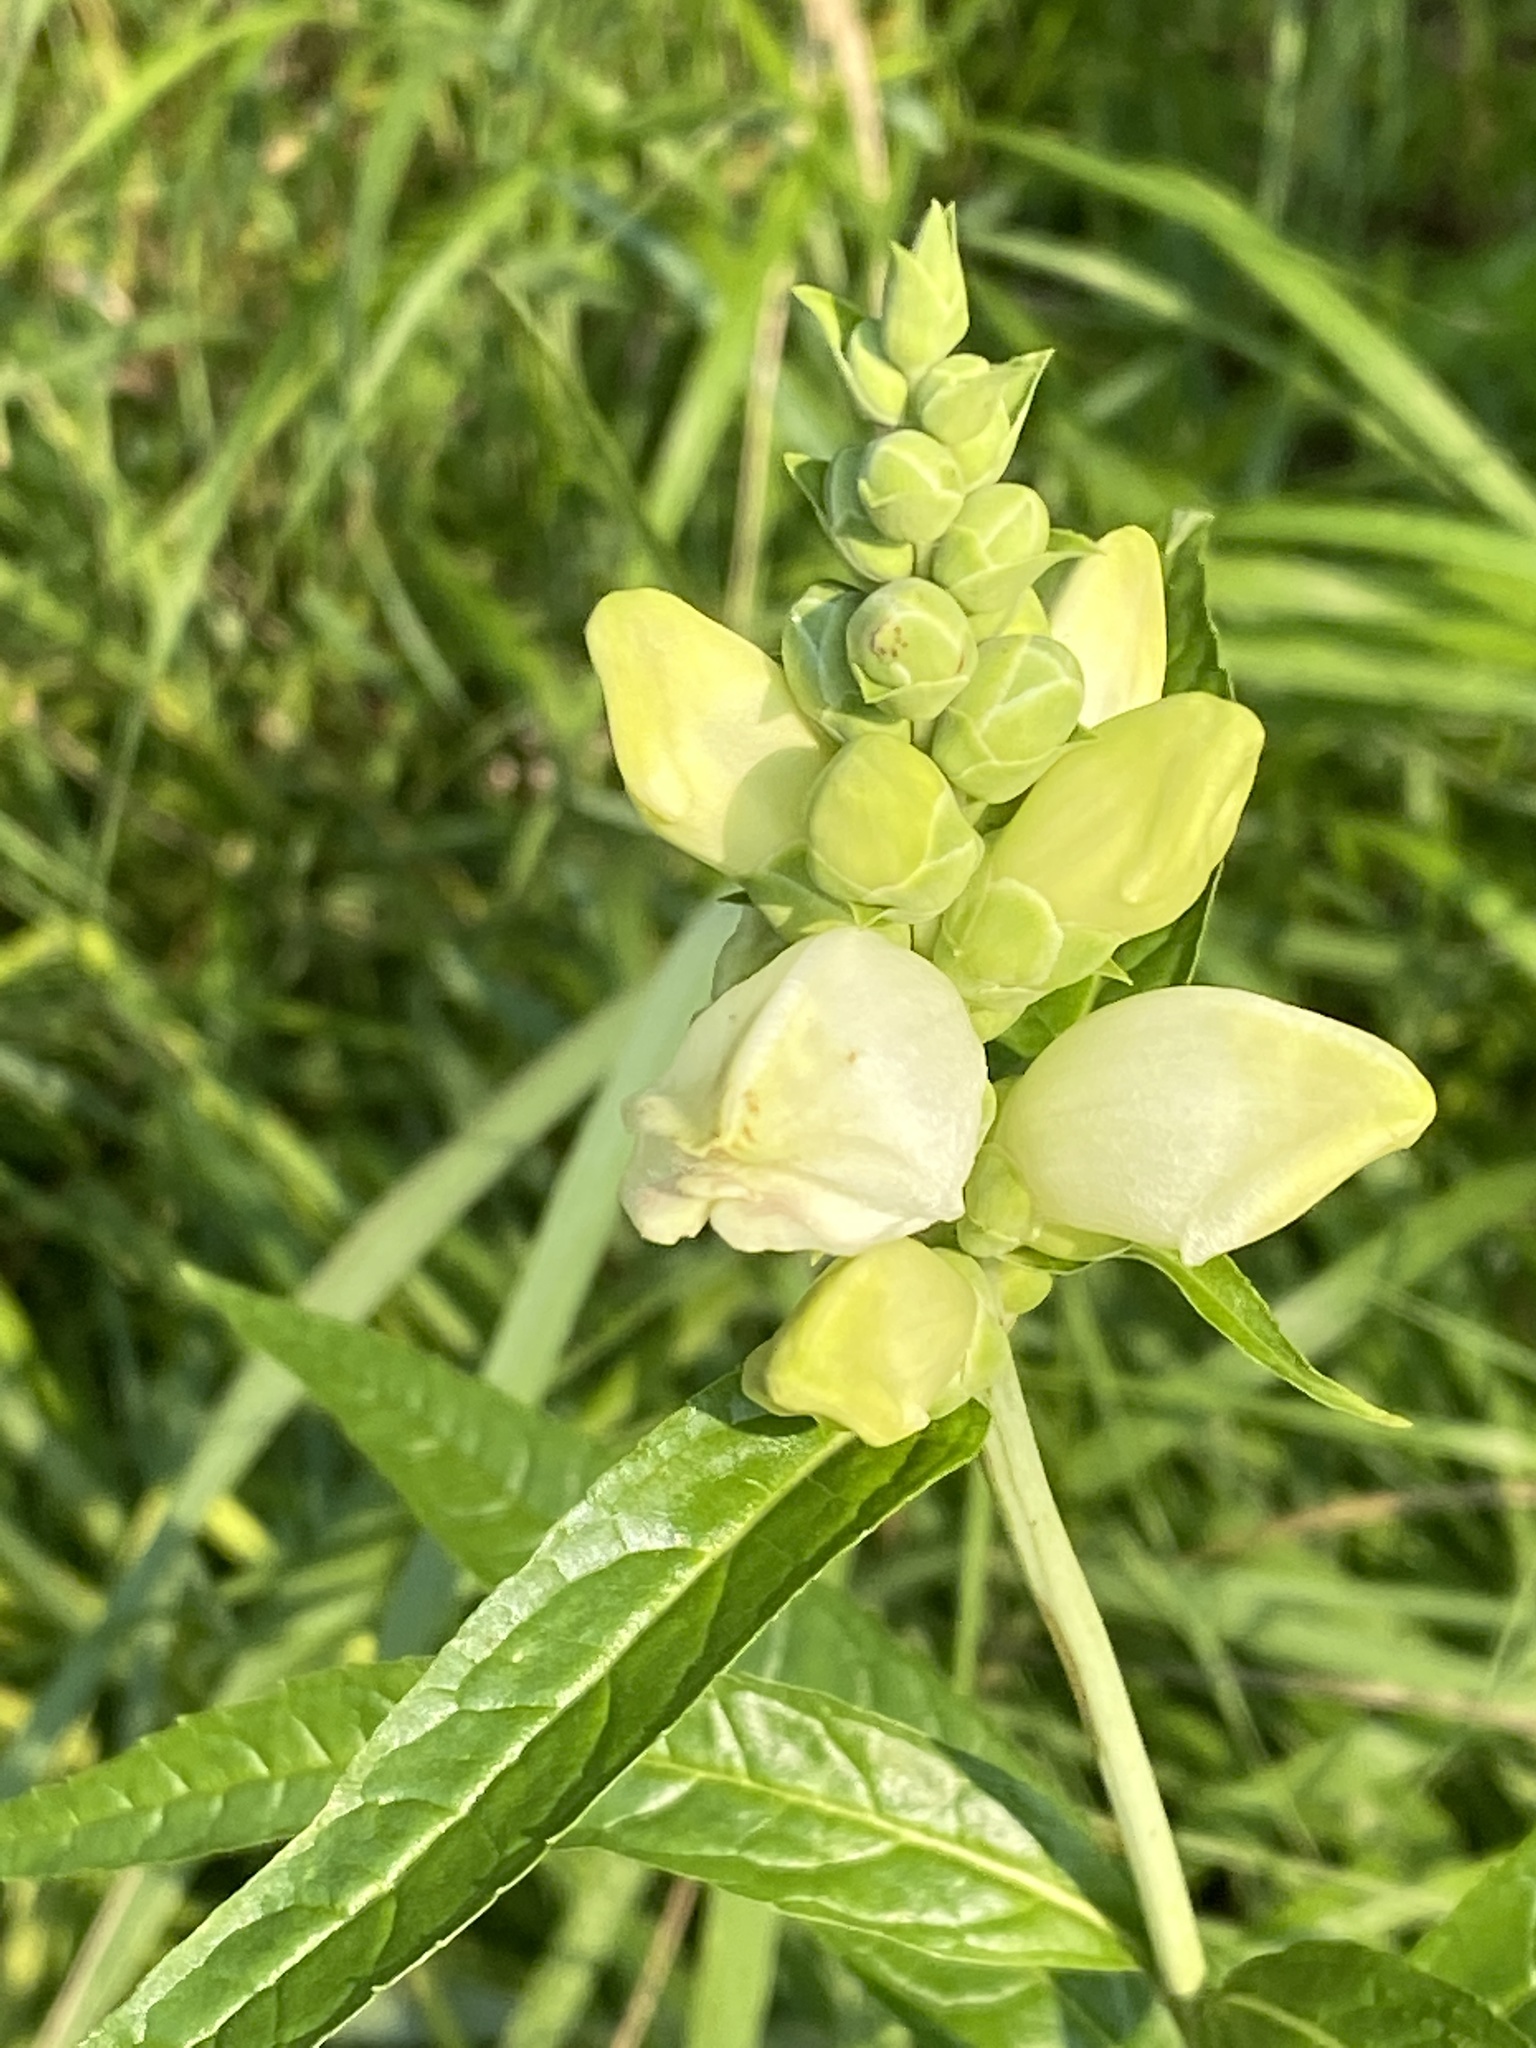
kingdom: Plantae
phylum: Tracheophyta
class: Magnoliopsida
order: Lamiales
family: Plantaginaceae
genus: Chelone
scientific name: Chelone glabra
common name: Snakehead
